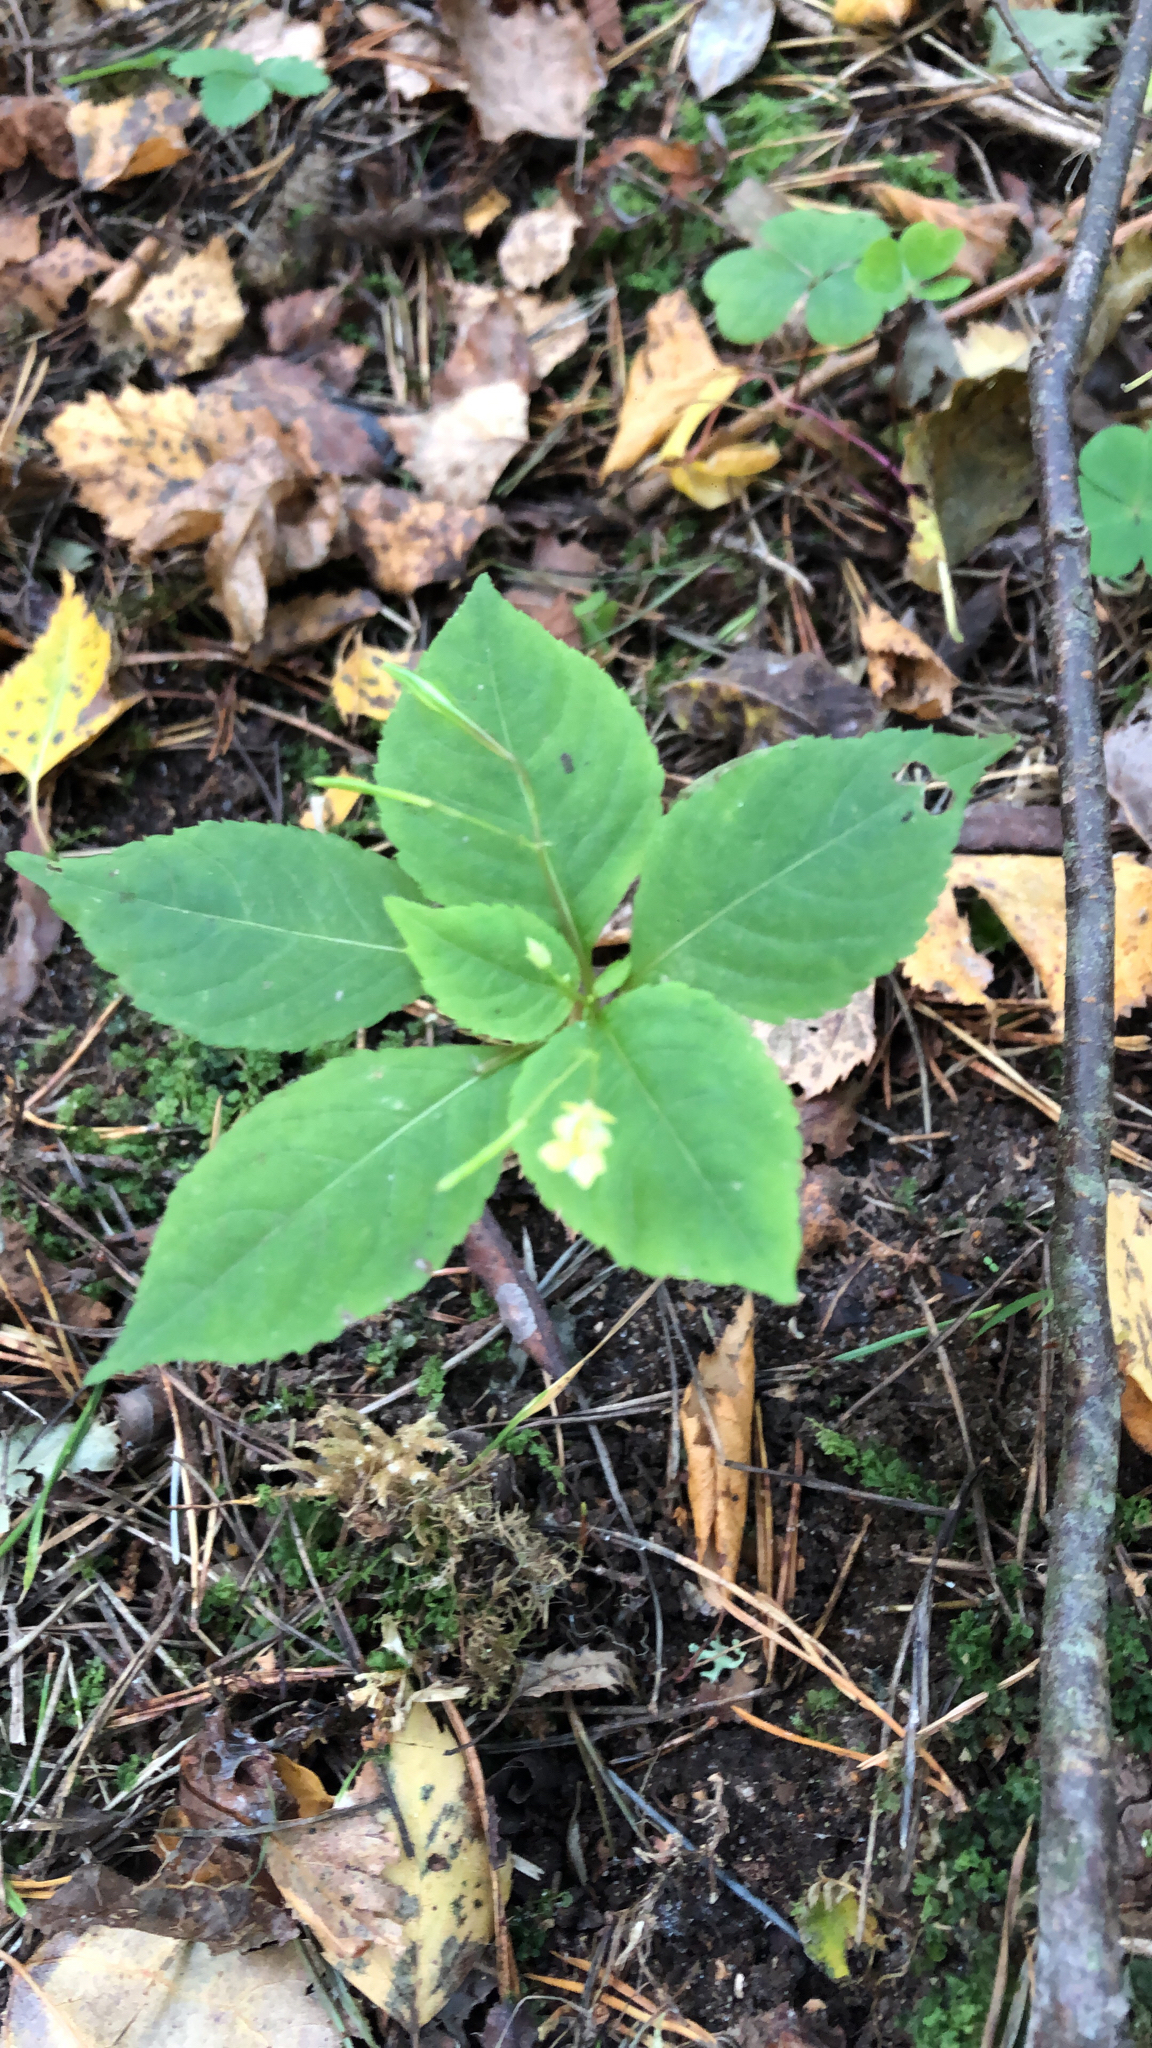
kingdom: Plantae
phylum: Tracheophyta
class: Magnoliopsida
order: Ericales
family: Balsaminaceae
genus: Impatiens
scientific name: Impatiens parviflora
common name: Small balsam
